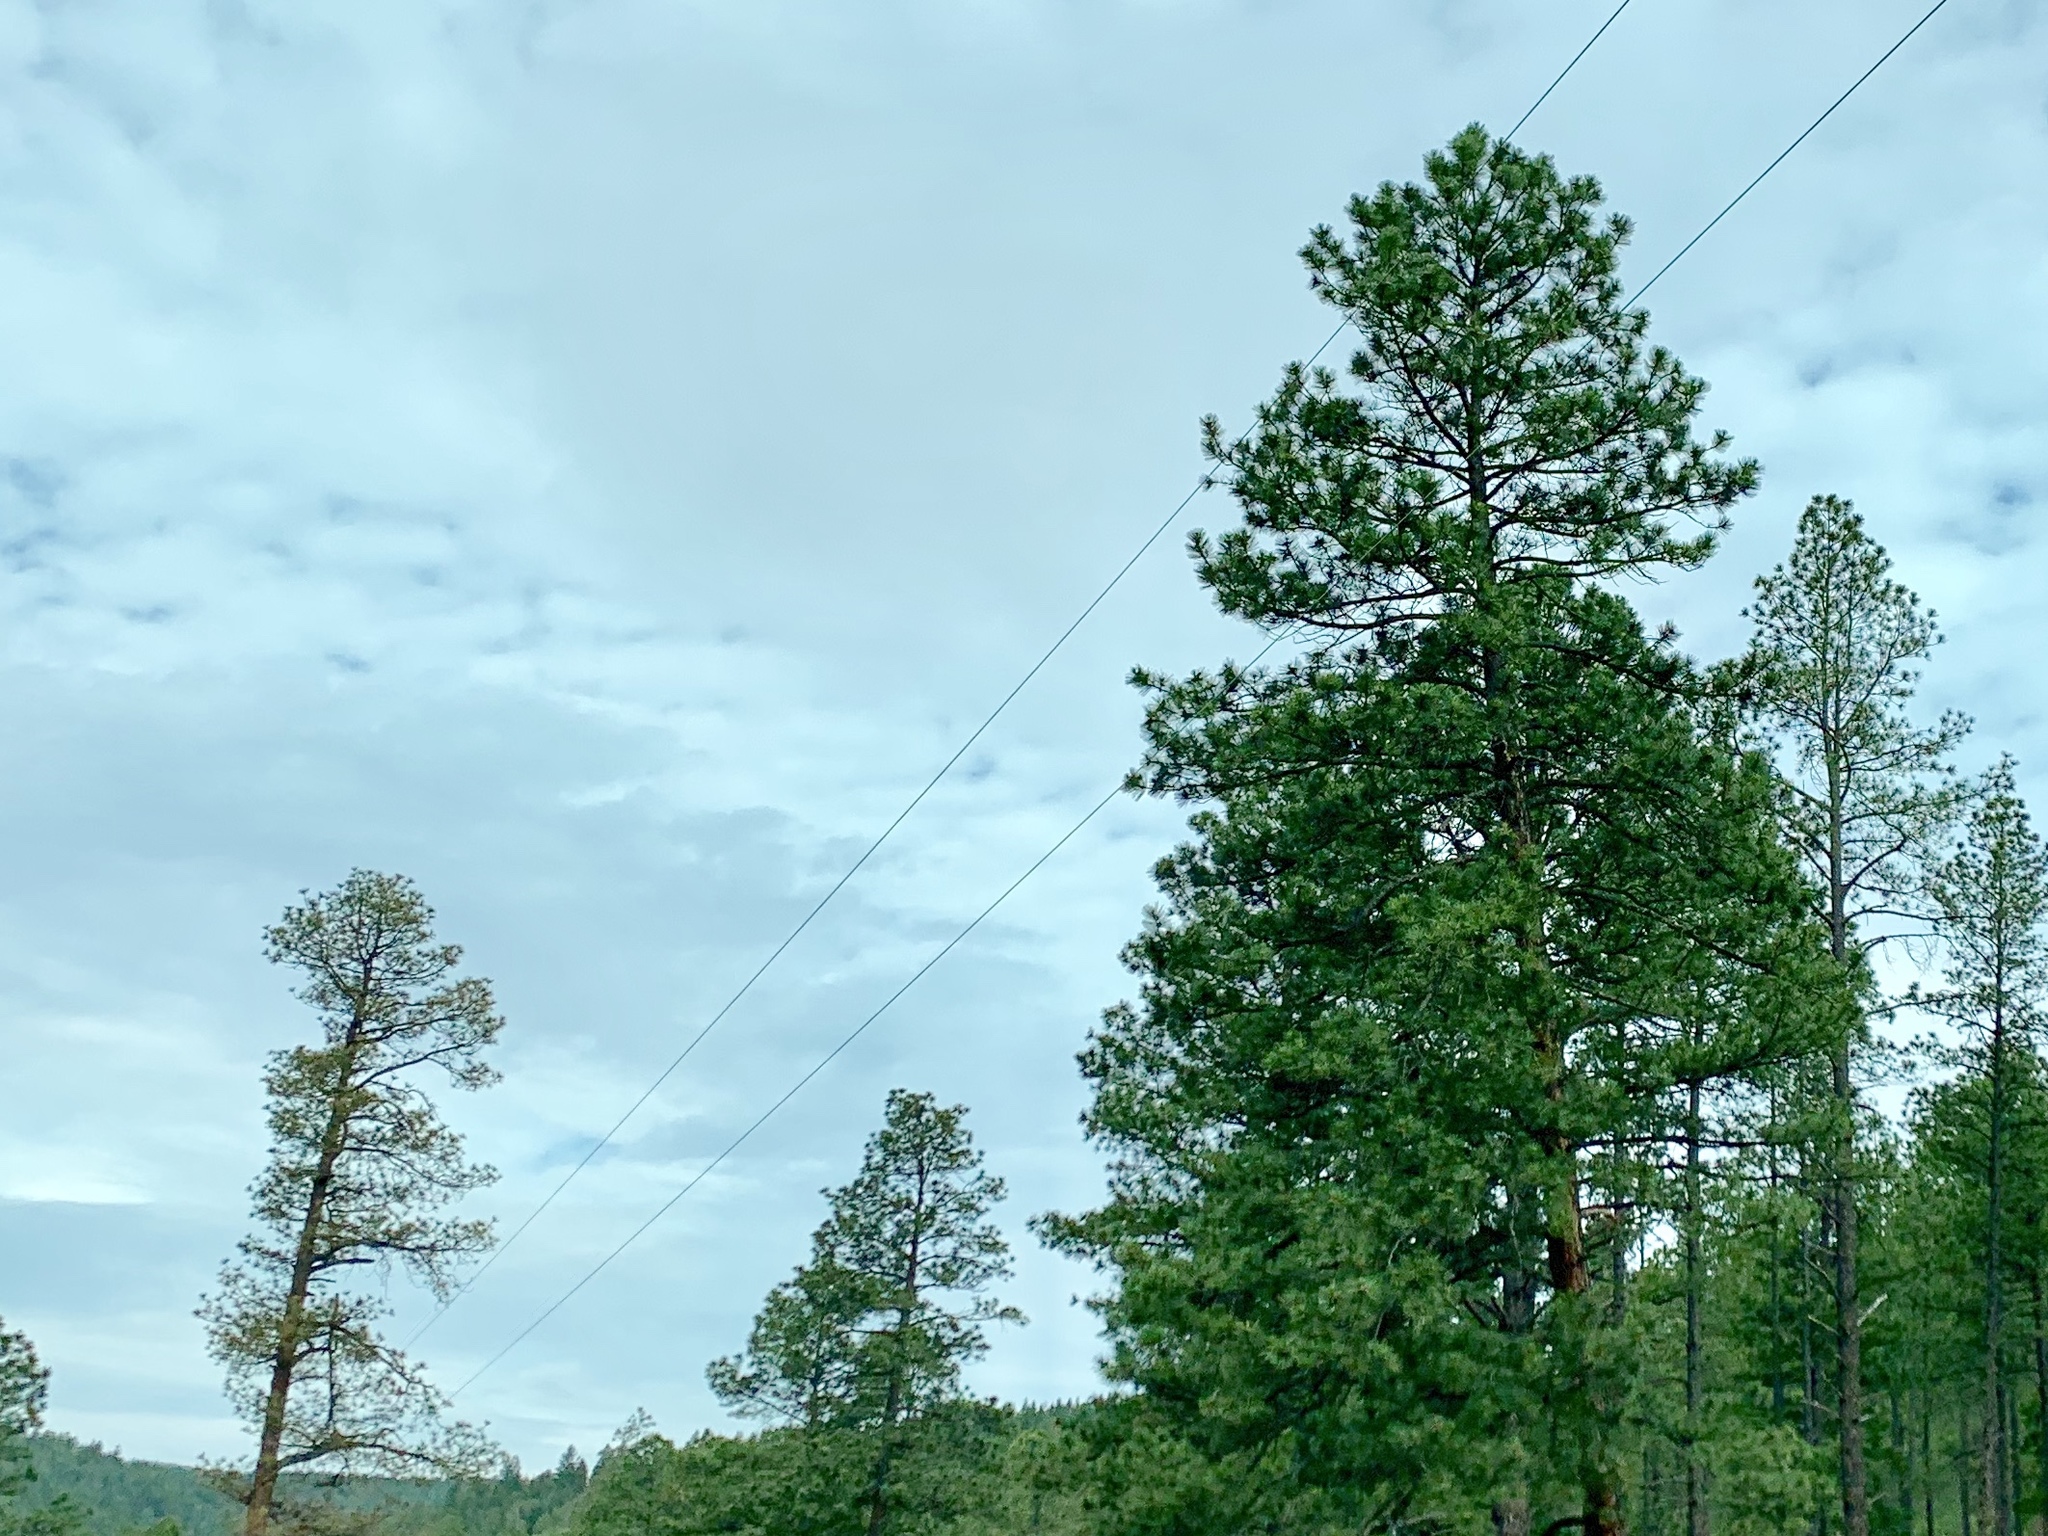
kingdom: Plantae
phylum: Tracheophyta
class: Pinopsida
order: Pinales
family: Pinaceae
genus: Pinus
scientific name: Pinus ponderosa
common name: Western yellow-pine
